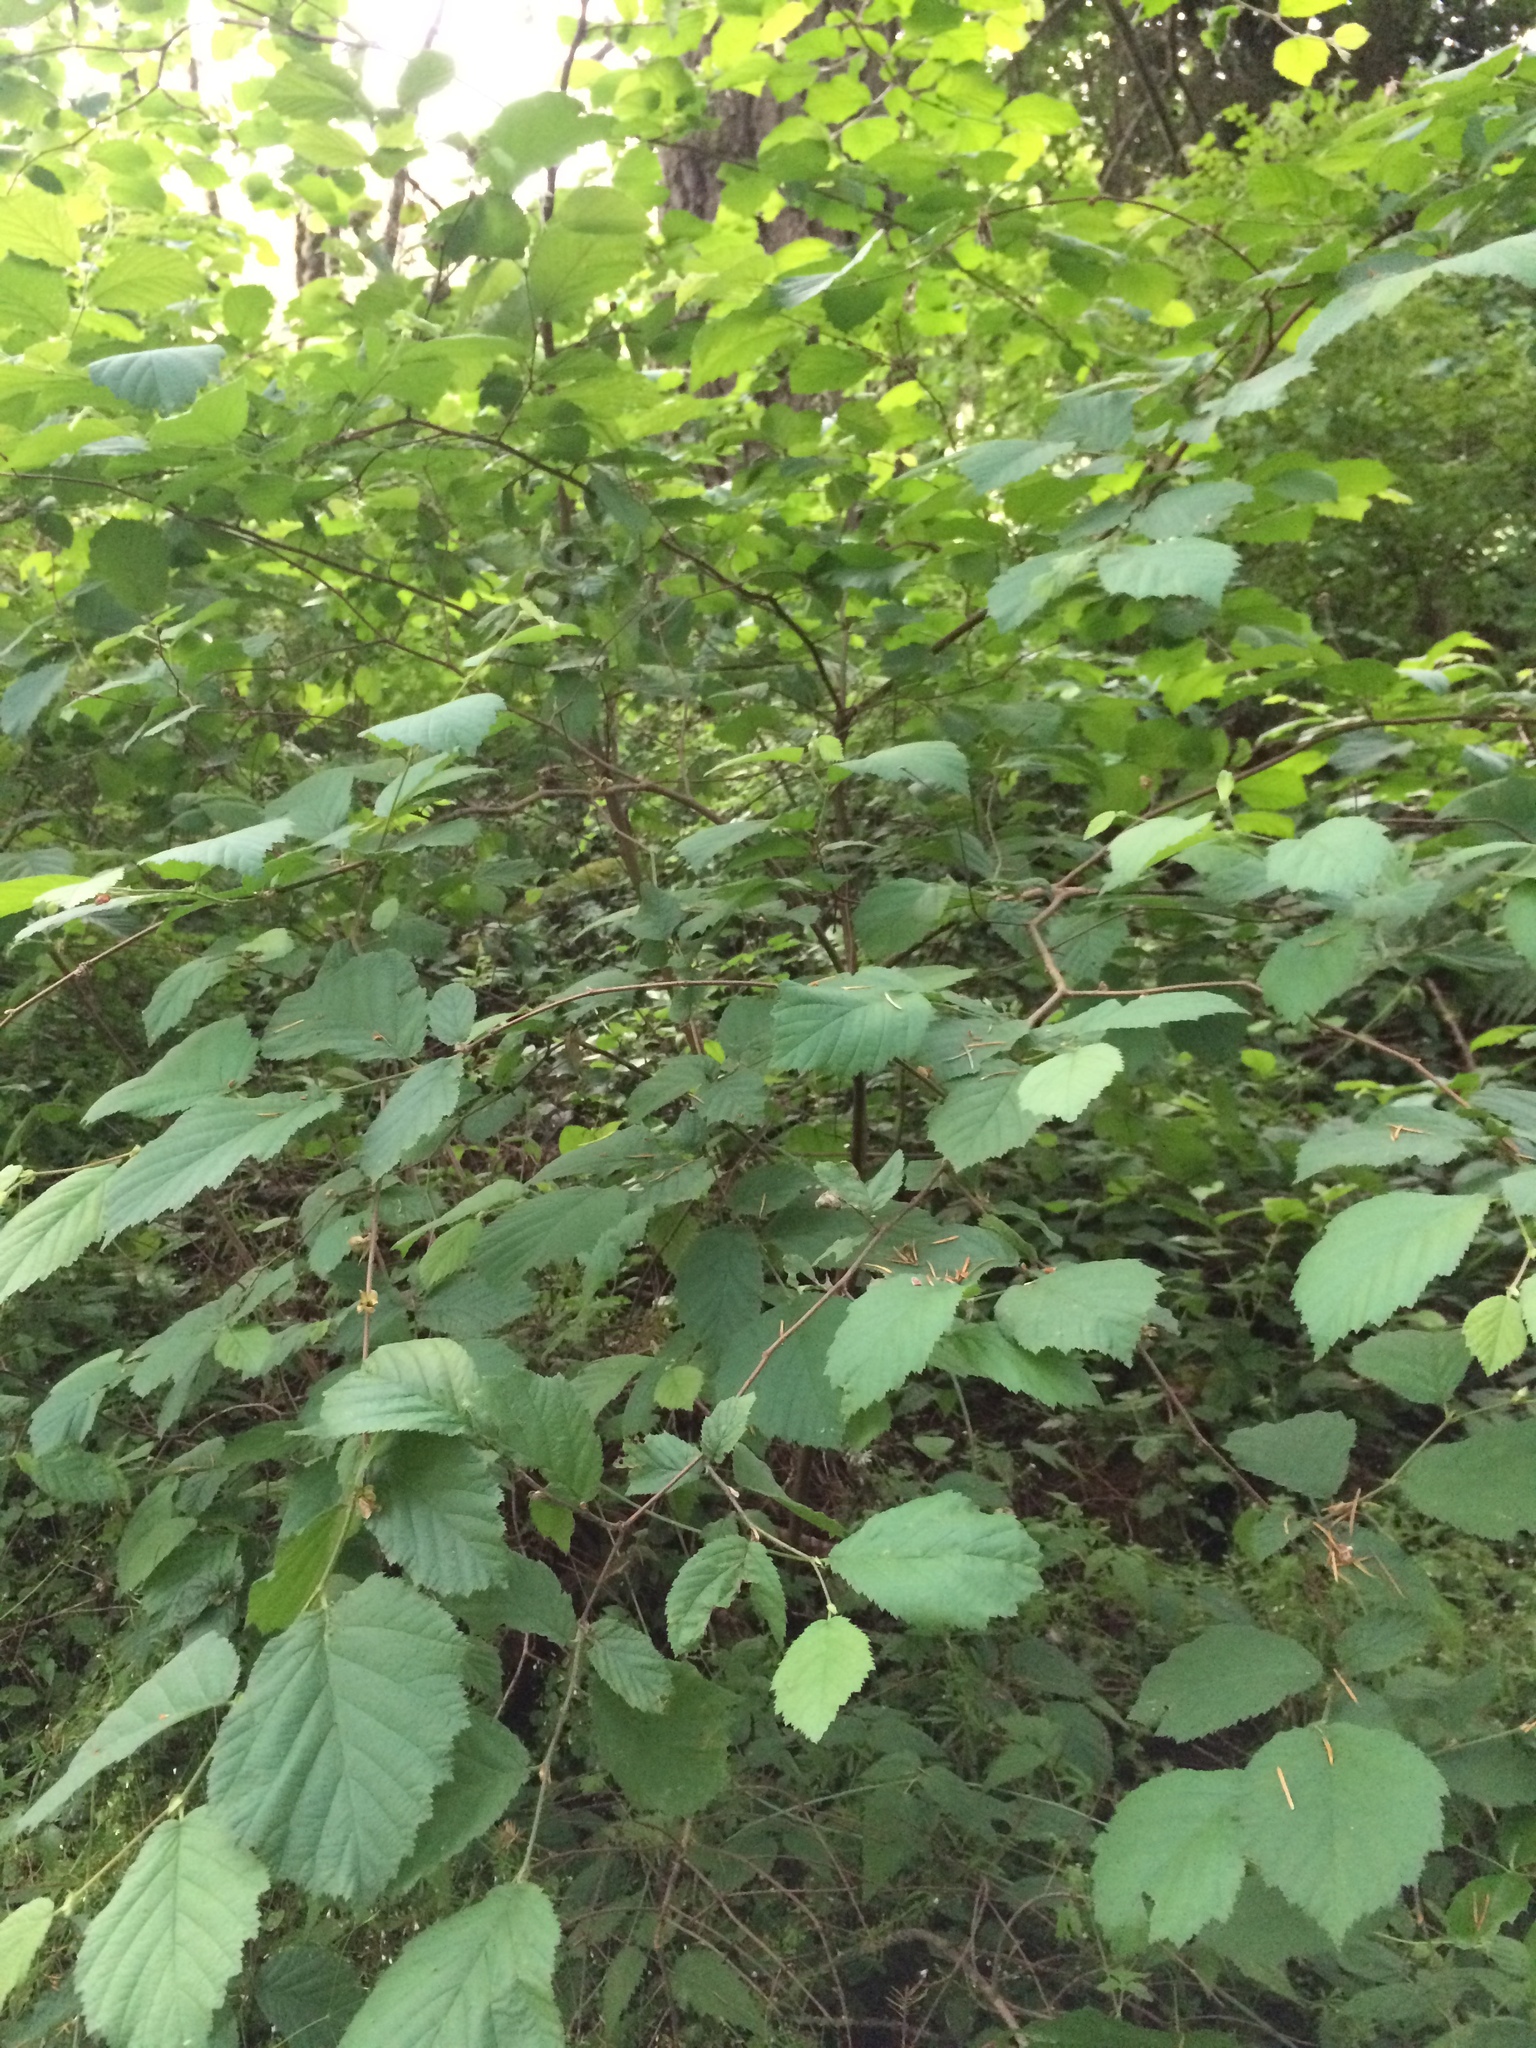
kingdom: Plantae
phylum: Tracheophyta
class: Magnoliopsida
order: Fagales
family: Betulaceae
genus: Corylus
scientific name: Corylus cornuta
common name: Beaked hazel
